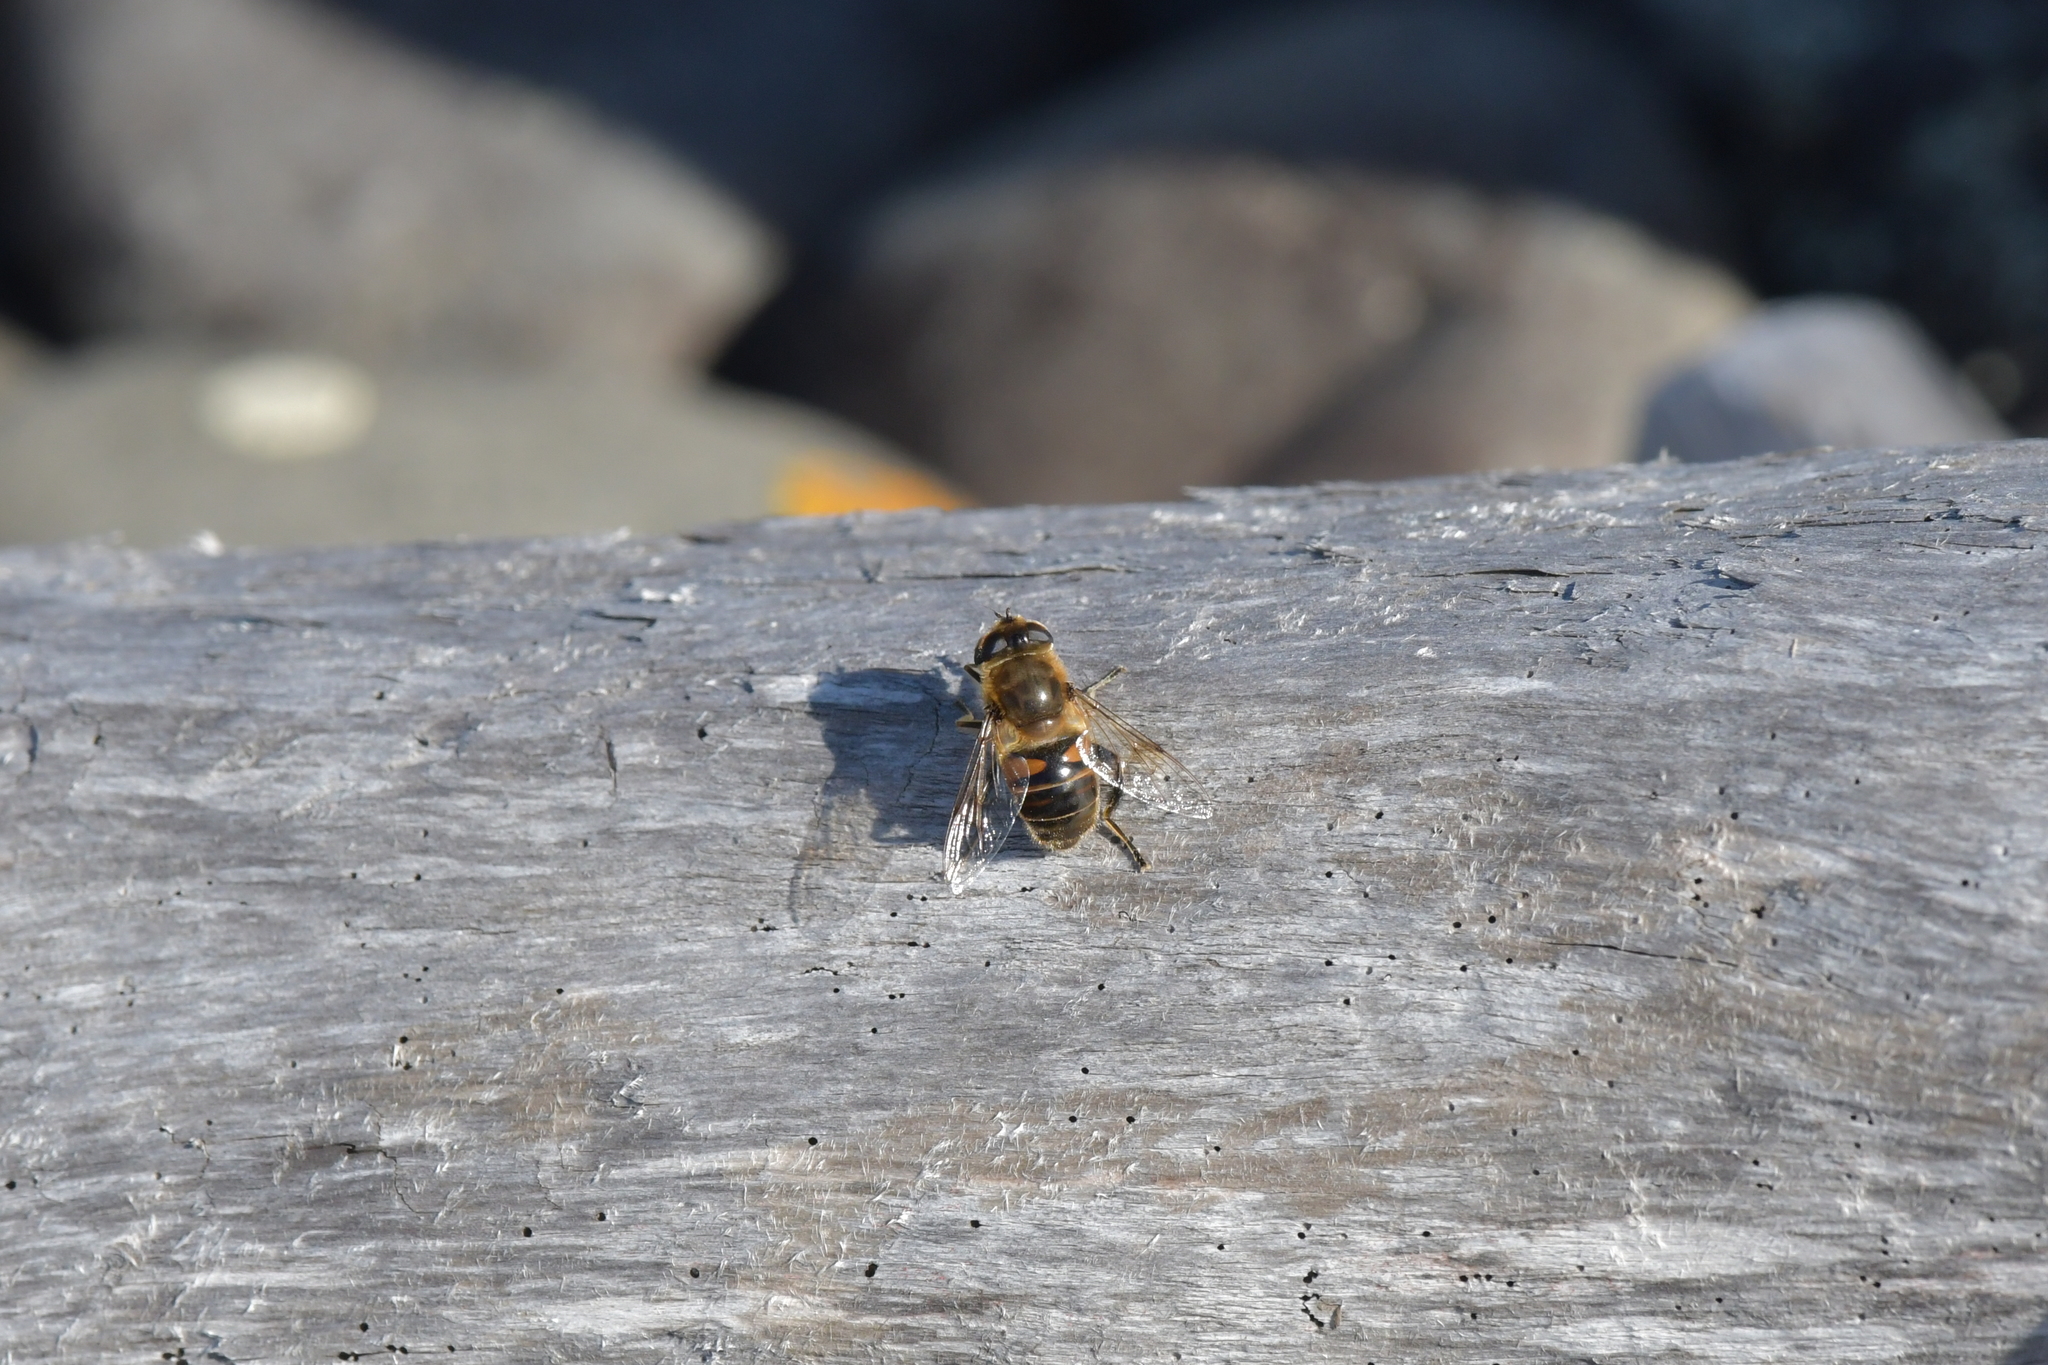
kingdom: Animalia
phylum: Arthropoda
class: Insecta
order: Diptera
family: Syrphidae
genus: Eristalis
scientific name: Eristalis tenax
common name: Drone fly
